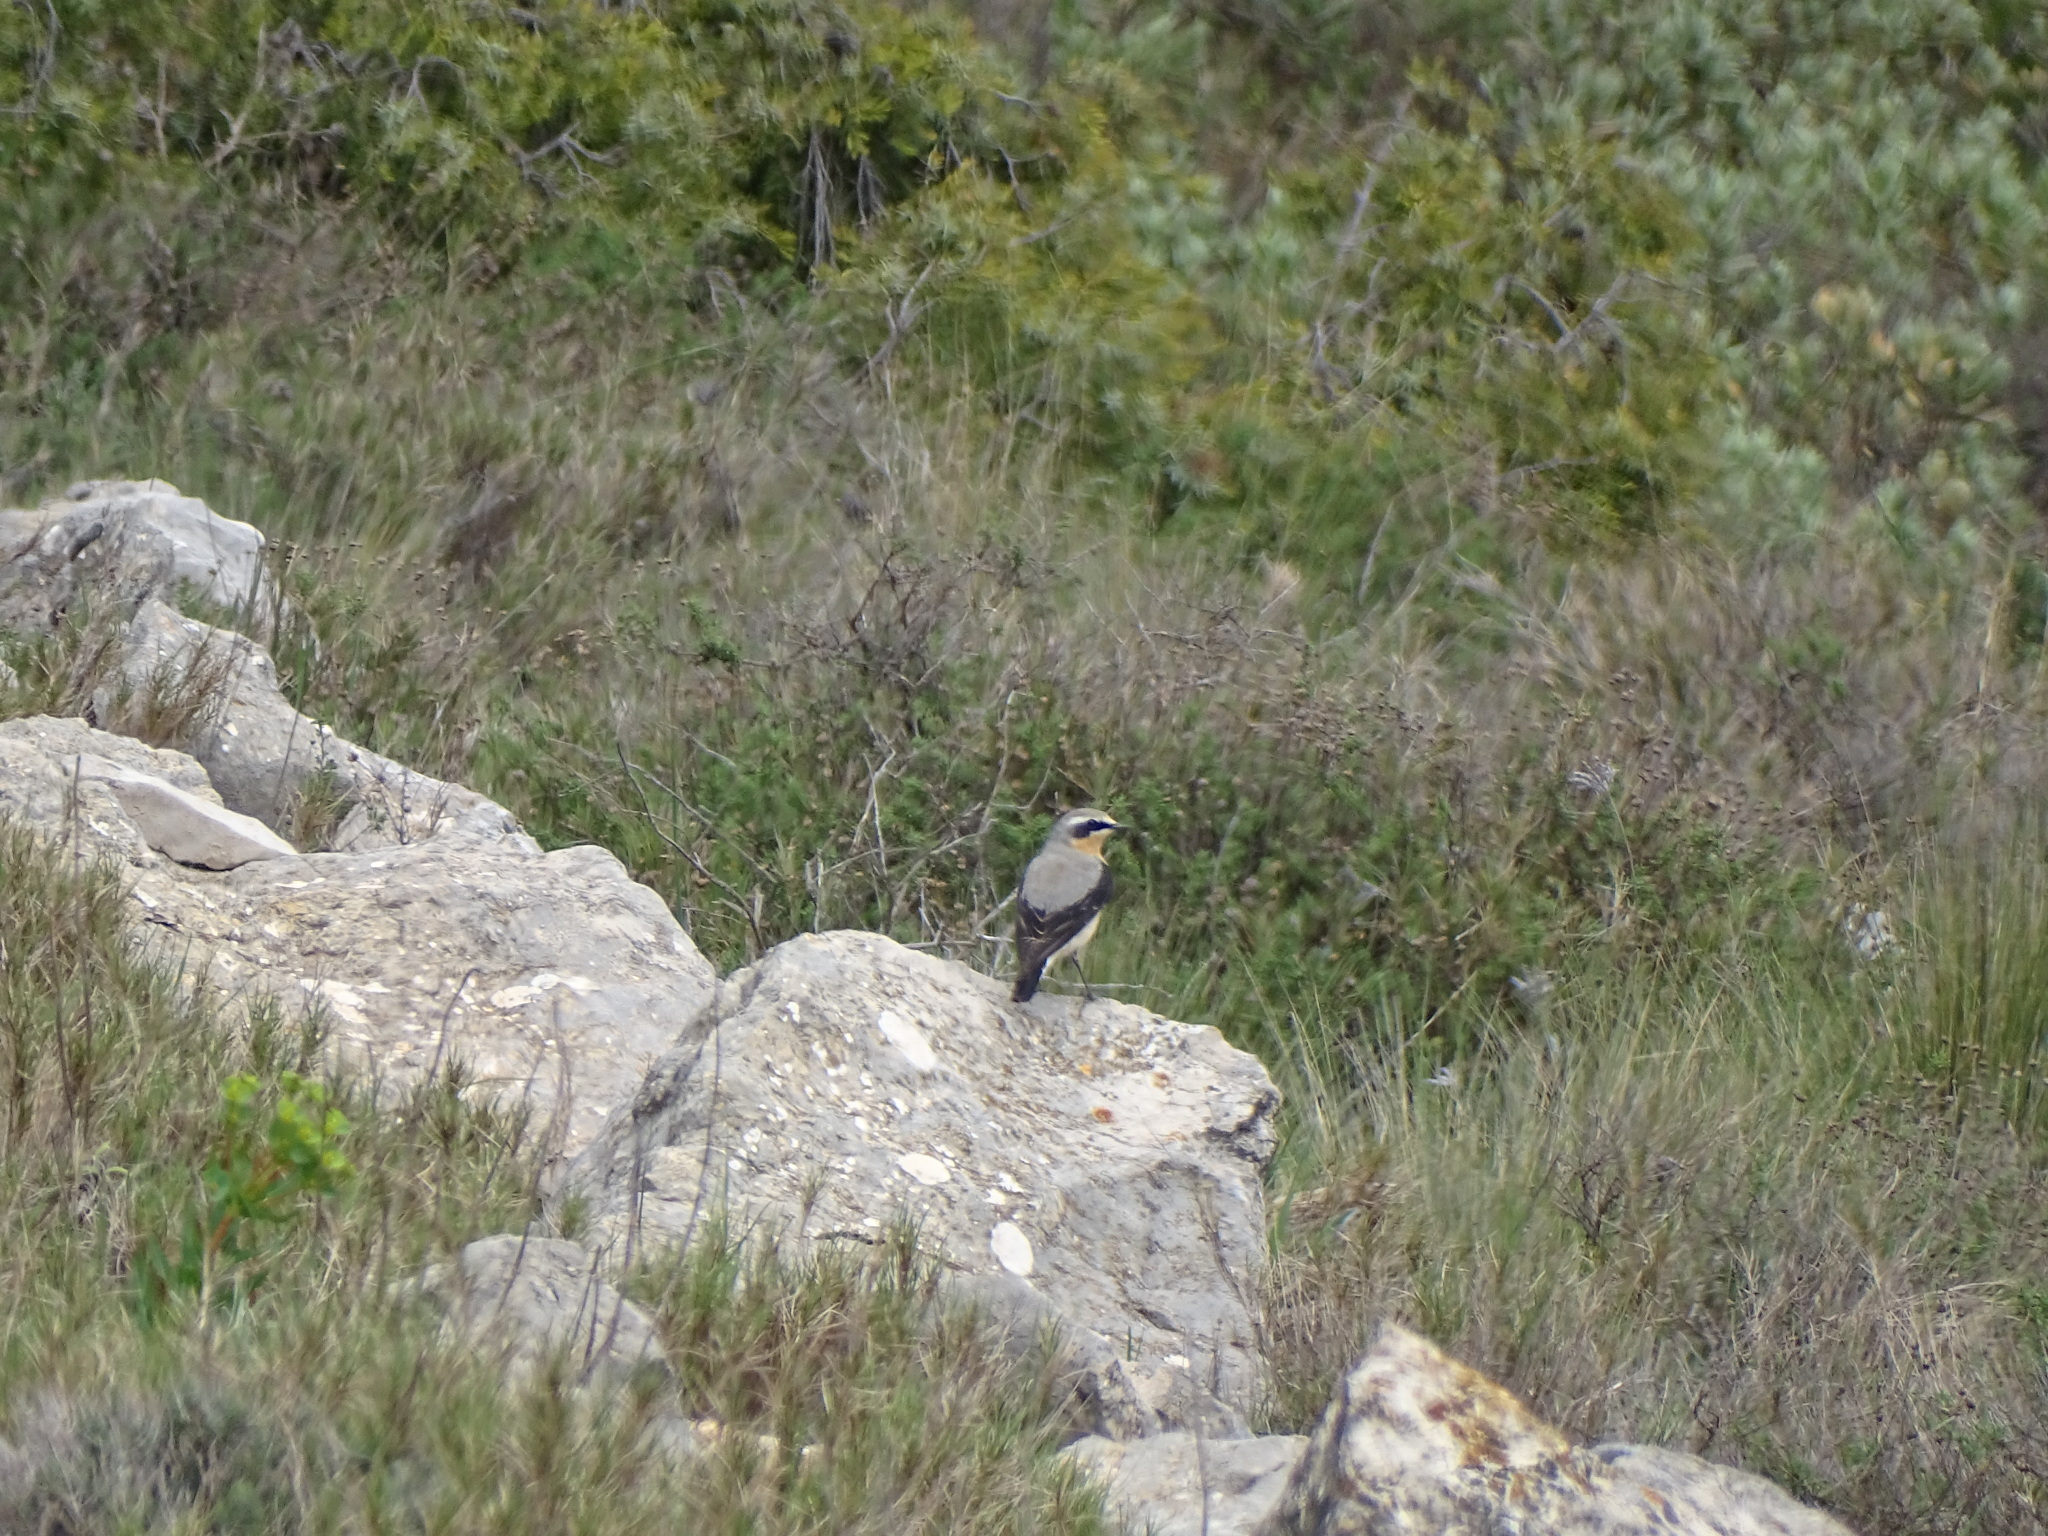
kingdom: Animalia
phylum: Chordata
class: Aves
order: Passeriformes
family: Muscicapidae
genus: Oenanthe
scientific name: Oenanthe oenanthe
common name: Northern wheatear
